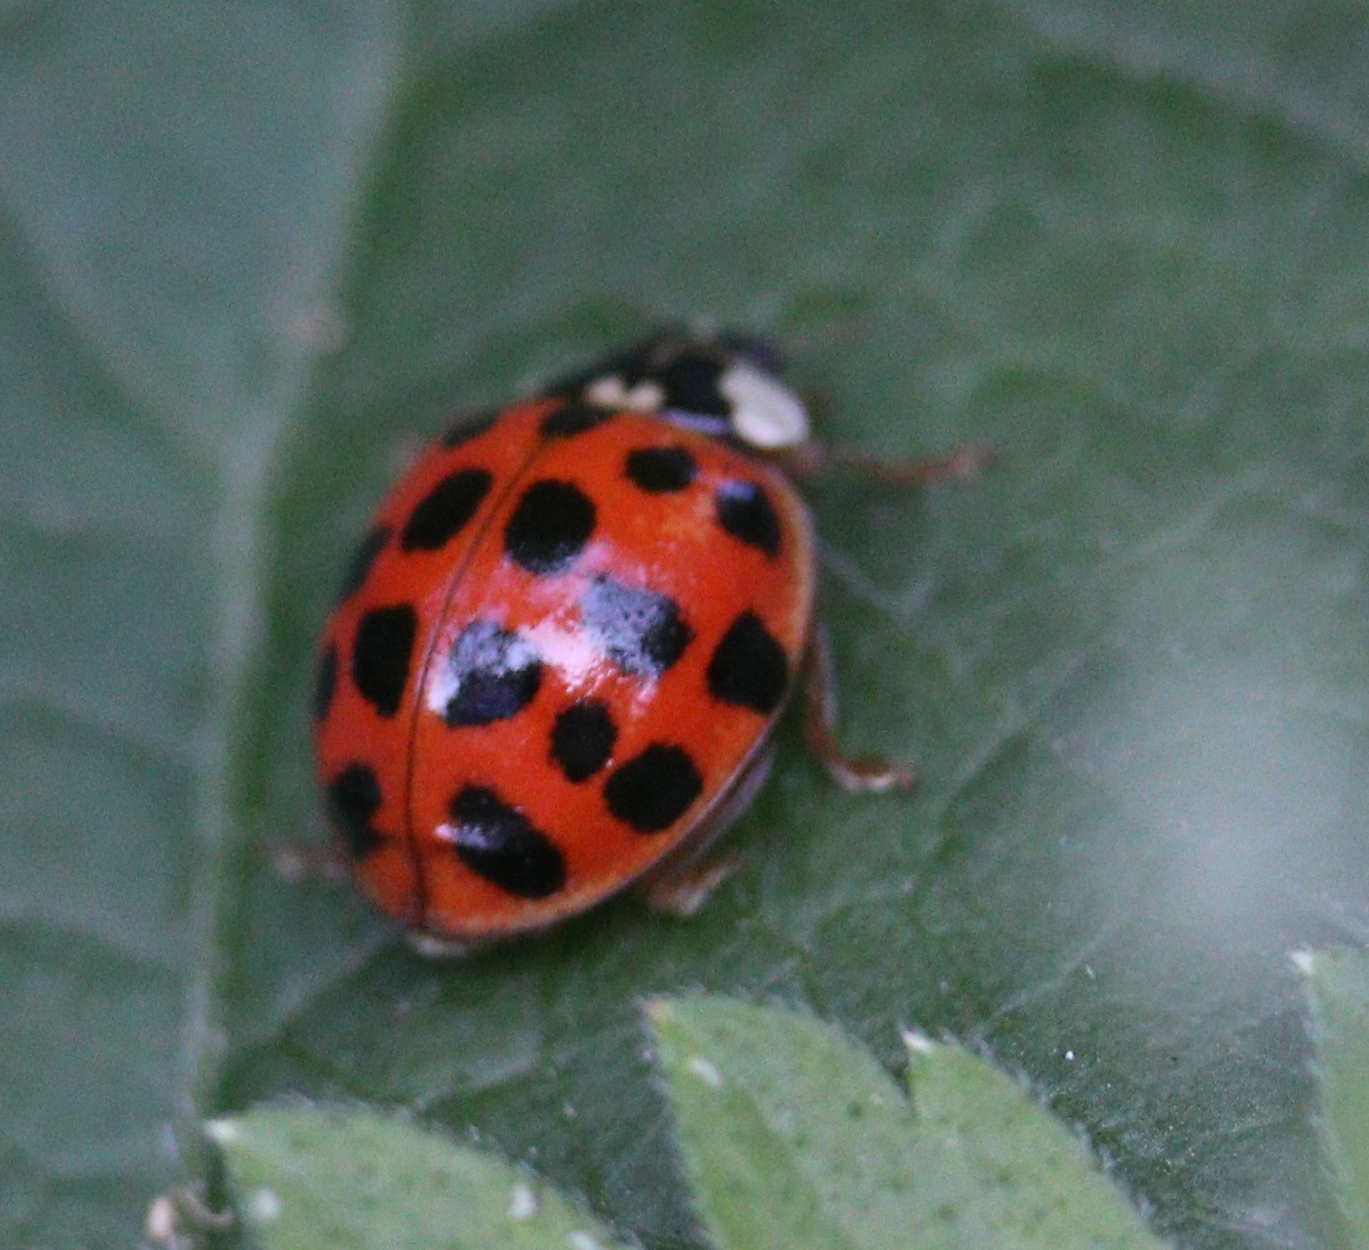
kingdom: Animalia
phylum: Arthropoda
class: Insecta
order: Coleoptera
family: Coccinellidae
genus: Harmonia
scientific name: Harmonia axyridis
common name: Harlequin ladybird
